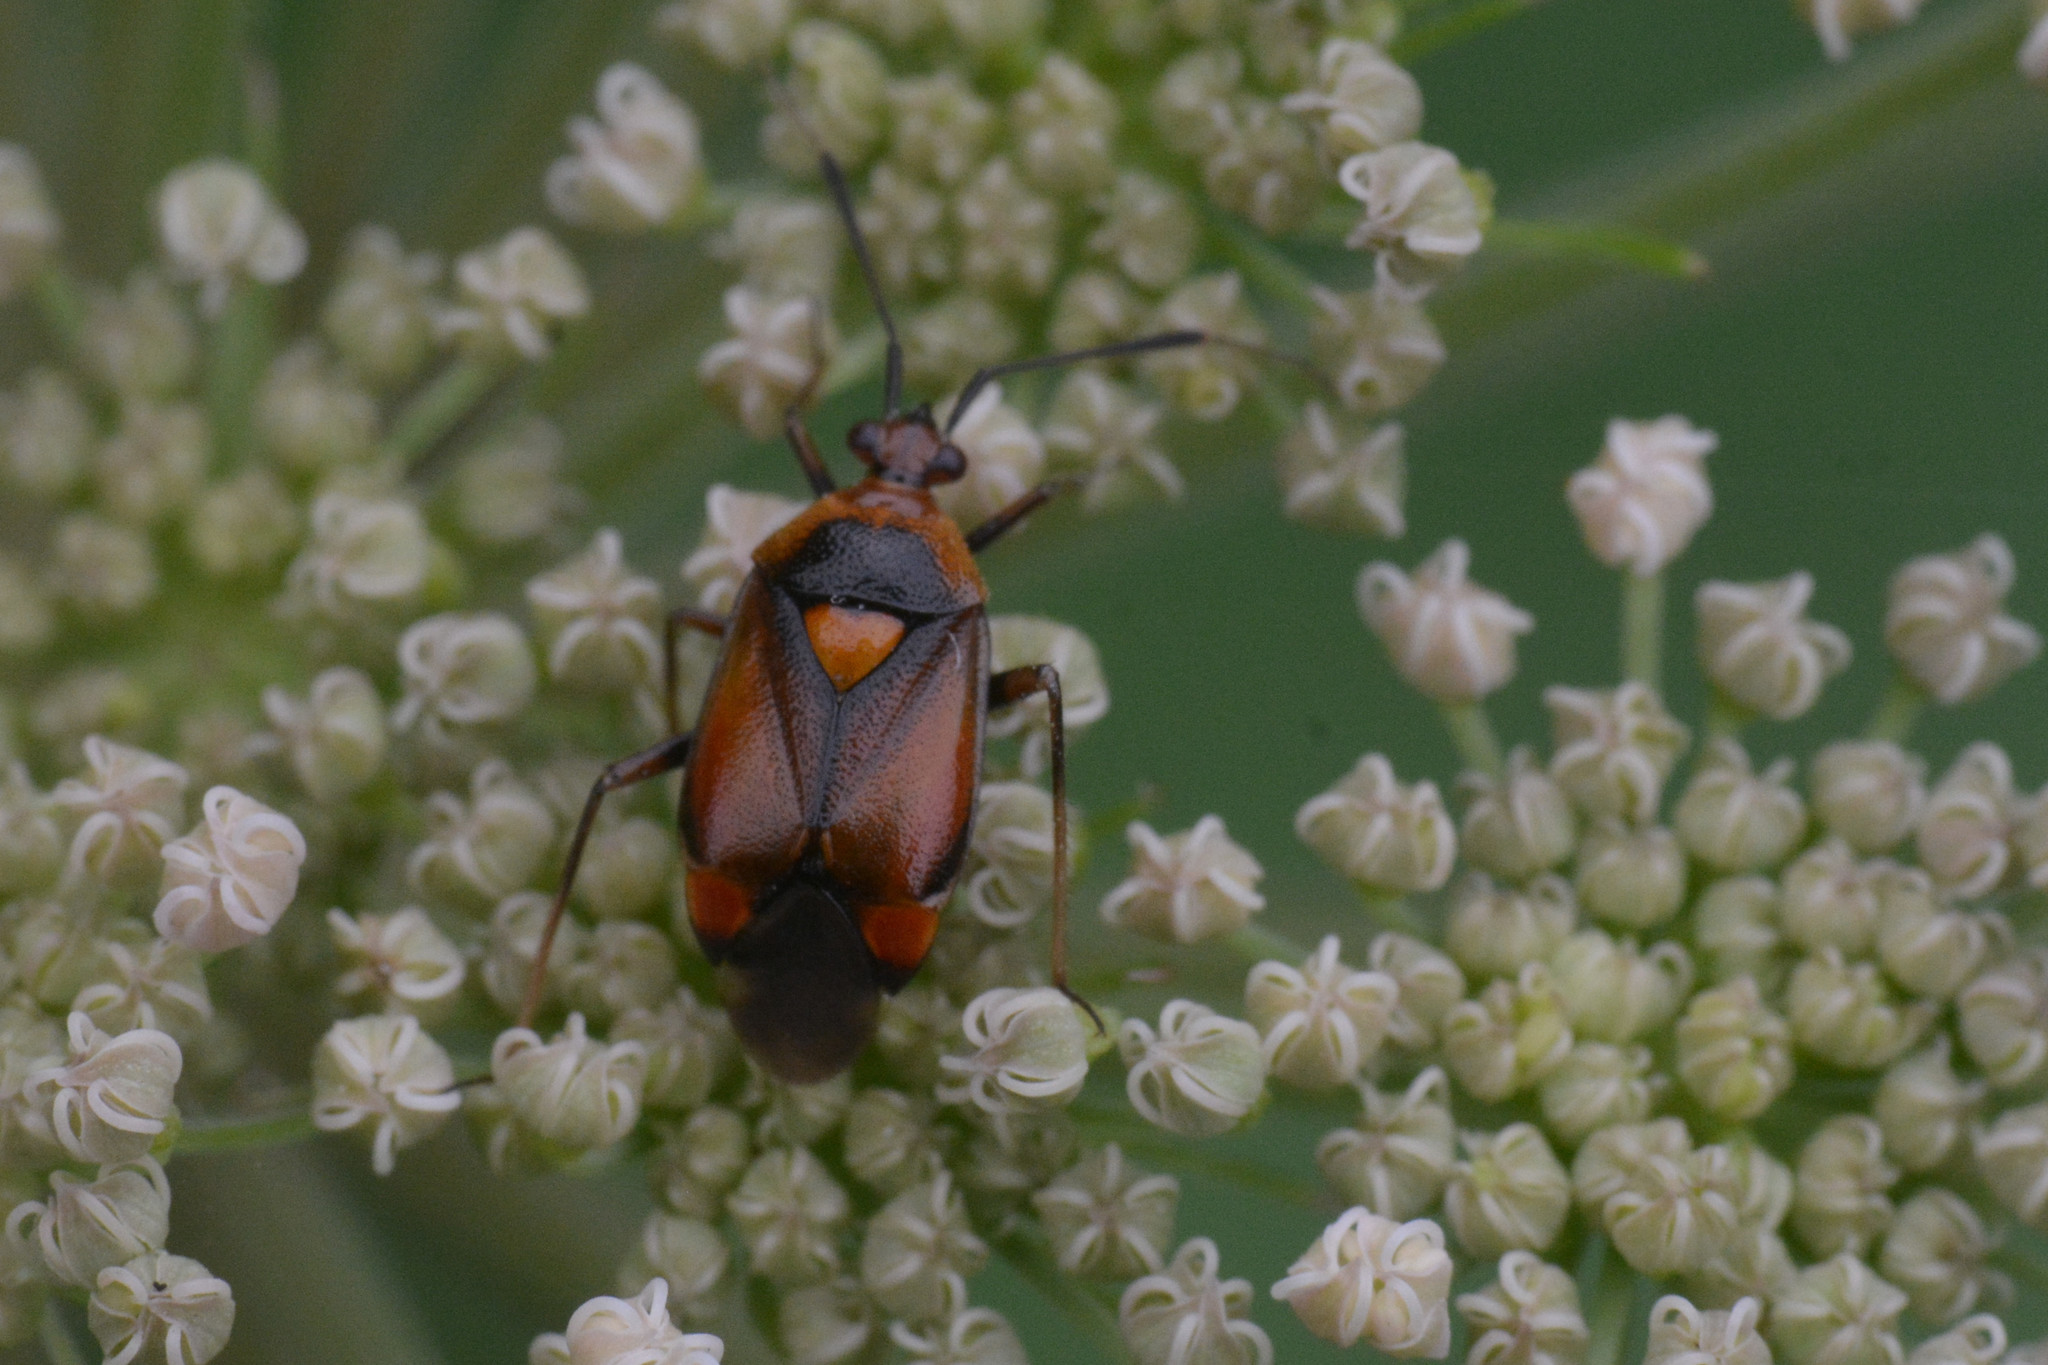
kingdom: Animalia
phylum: Arthropoda
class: Insecta
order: Hemiptera
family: Miridae
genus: Deraeocoris
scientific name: Deraeocoris ruber
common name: Plant bug
